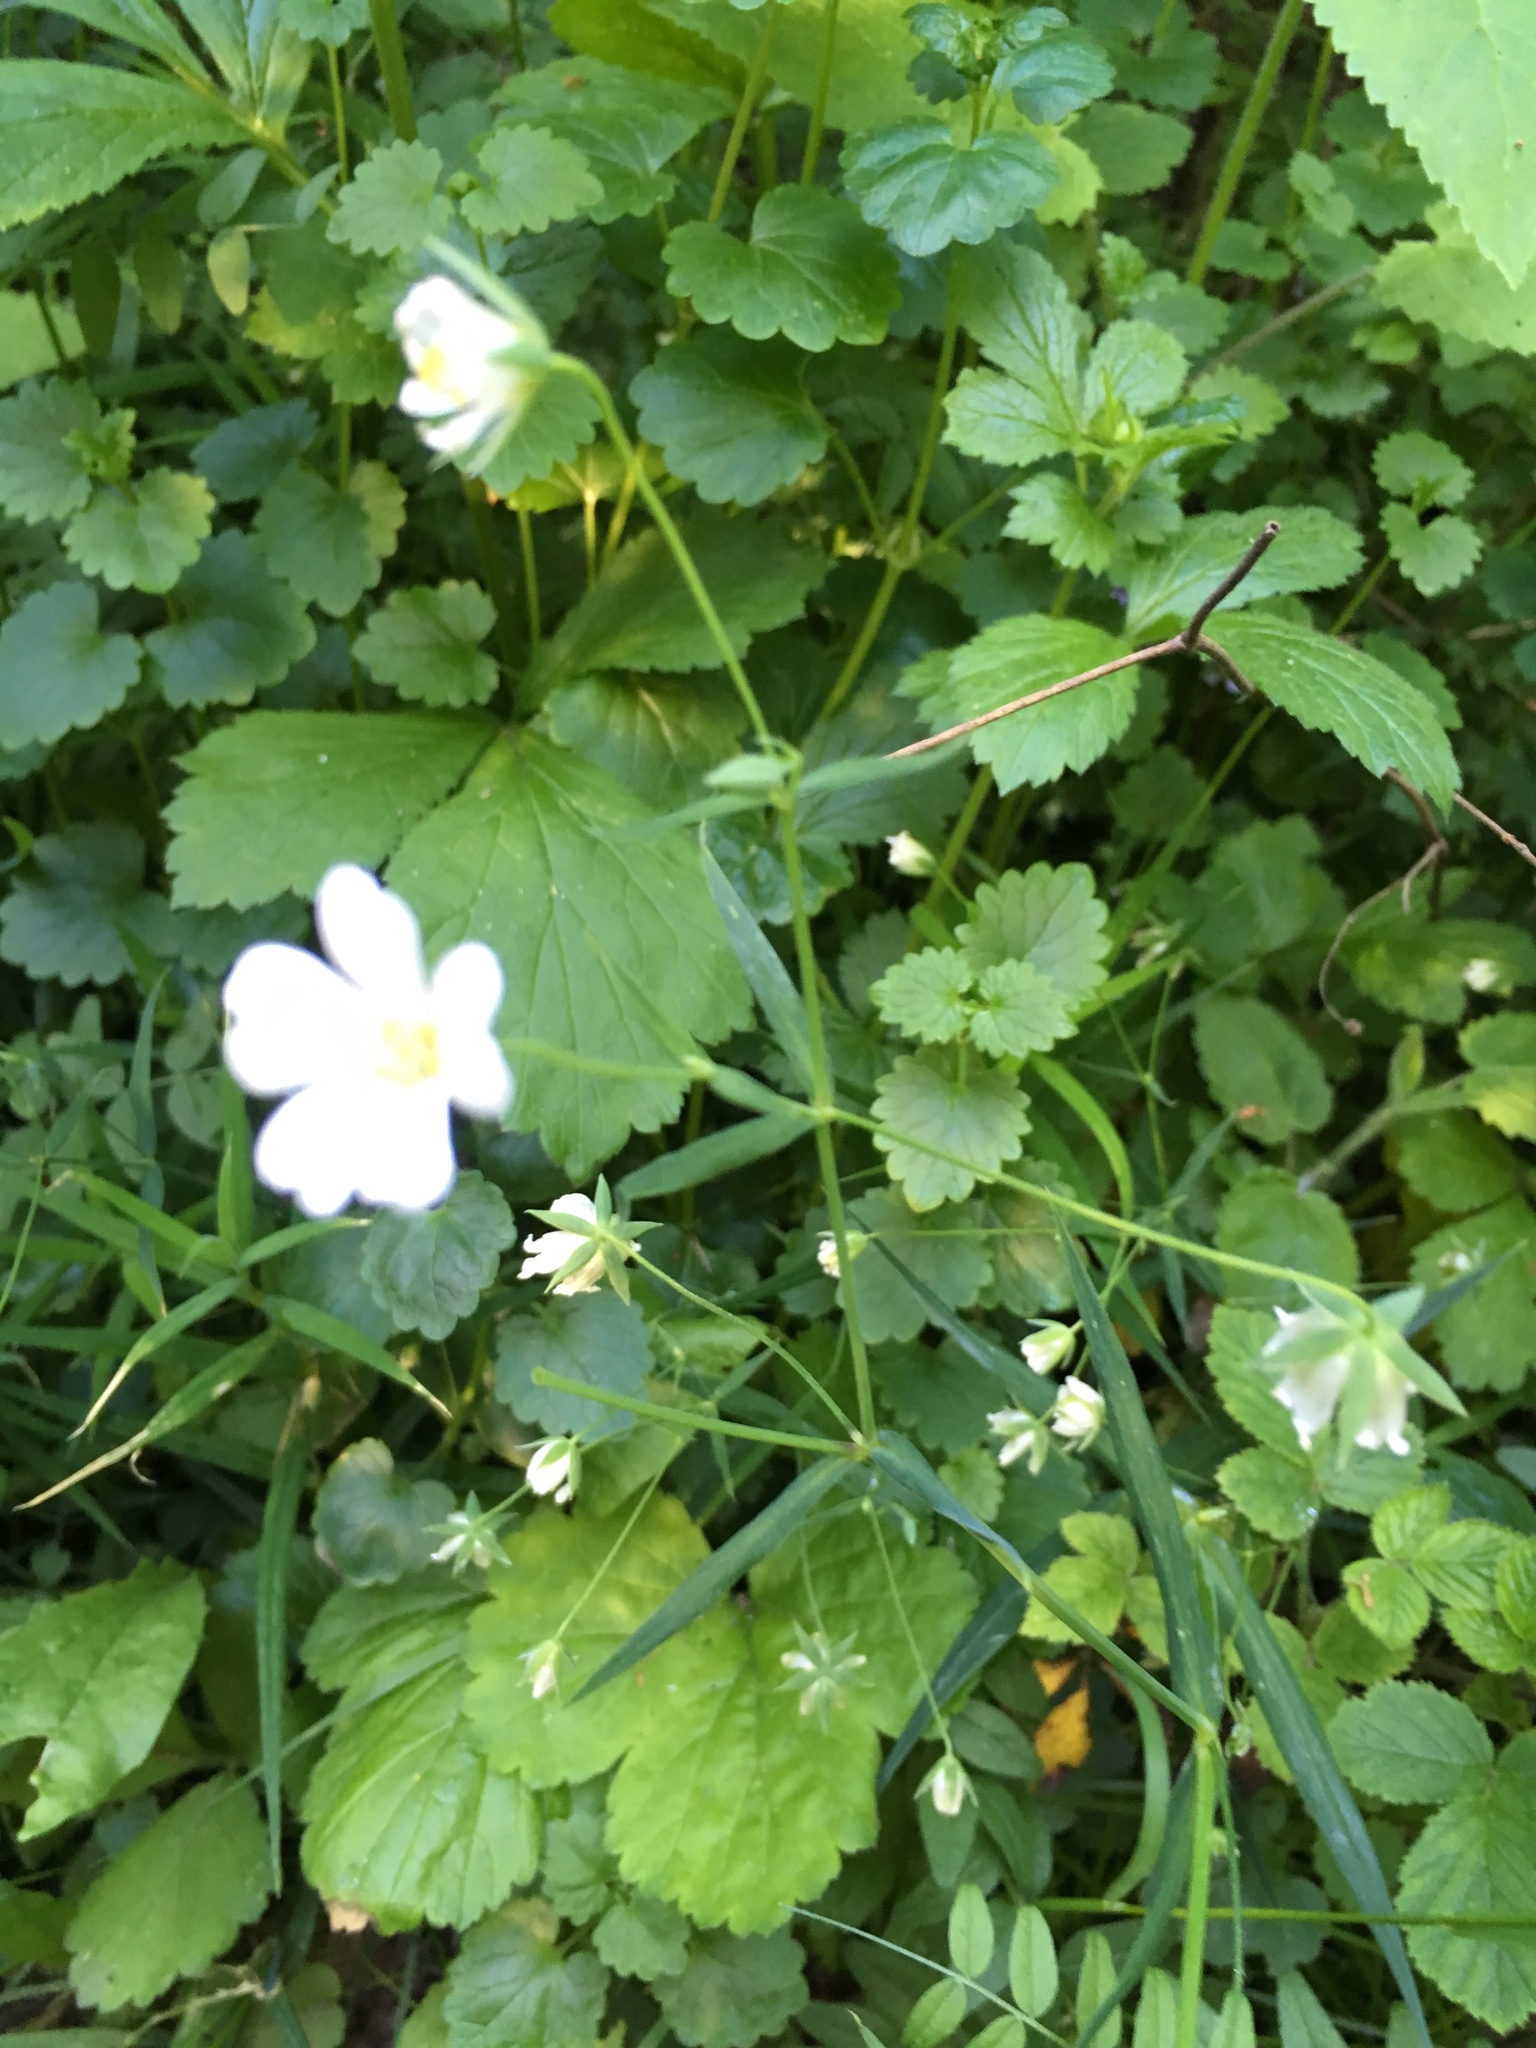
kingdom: Plantae
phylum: Tracheophyta
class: Magnoliopsida
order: Caryophyllales
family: Caryophyllaceae
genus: Rabelera
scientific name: Rabelera holostea
